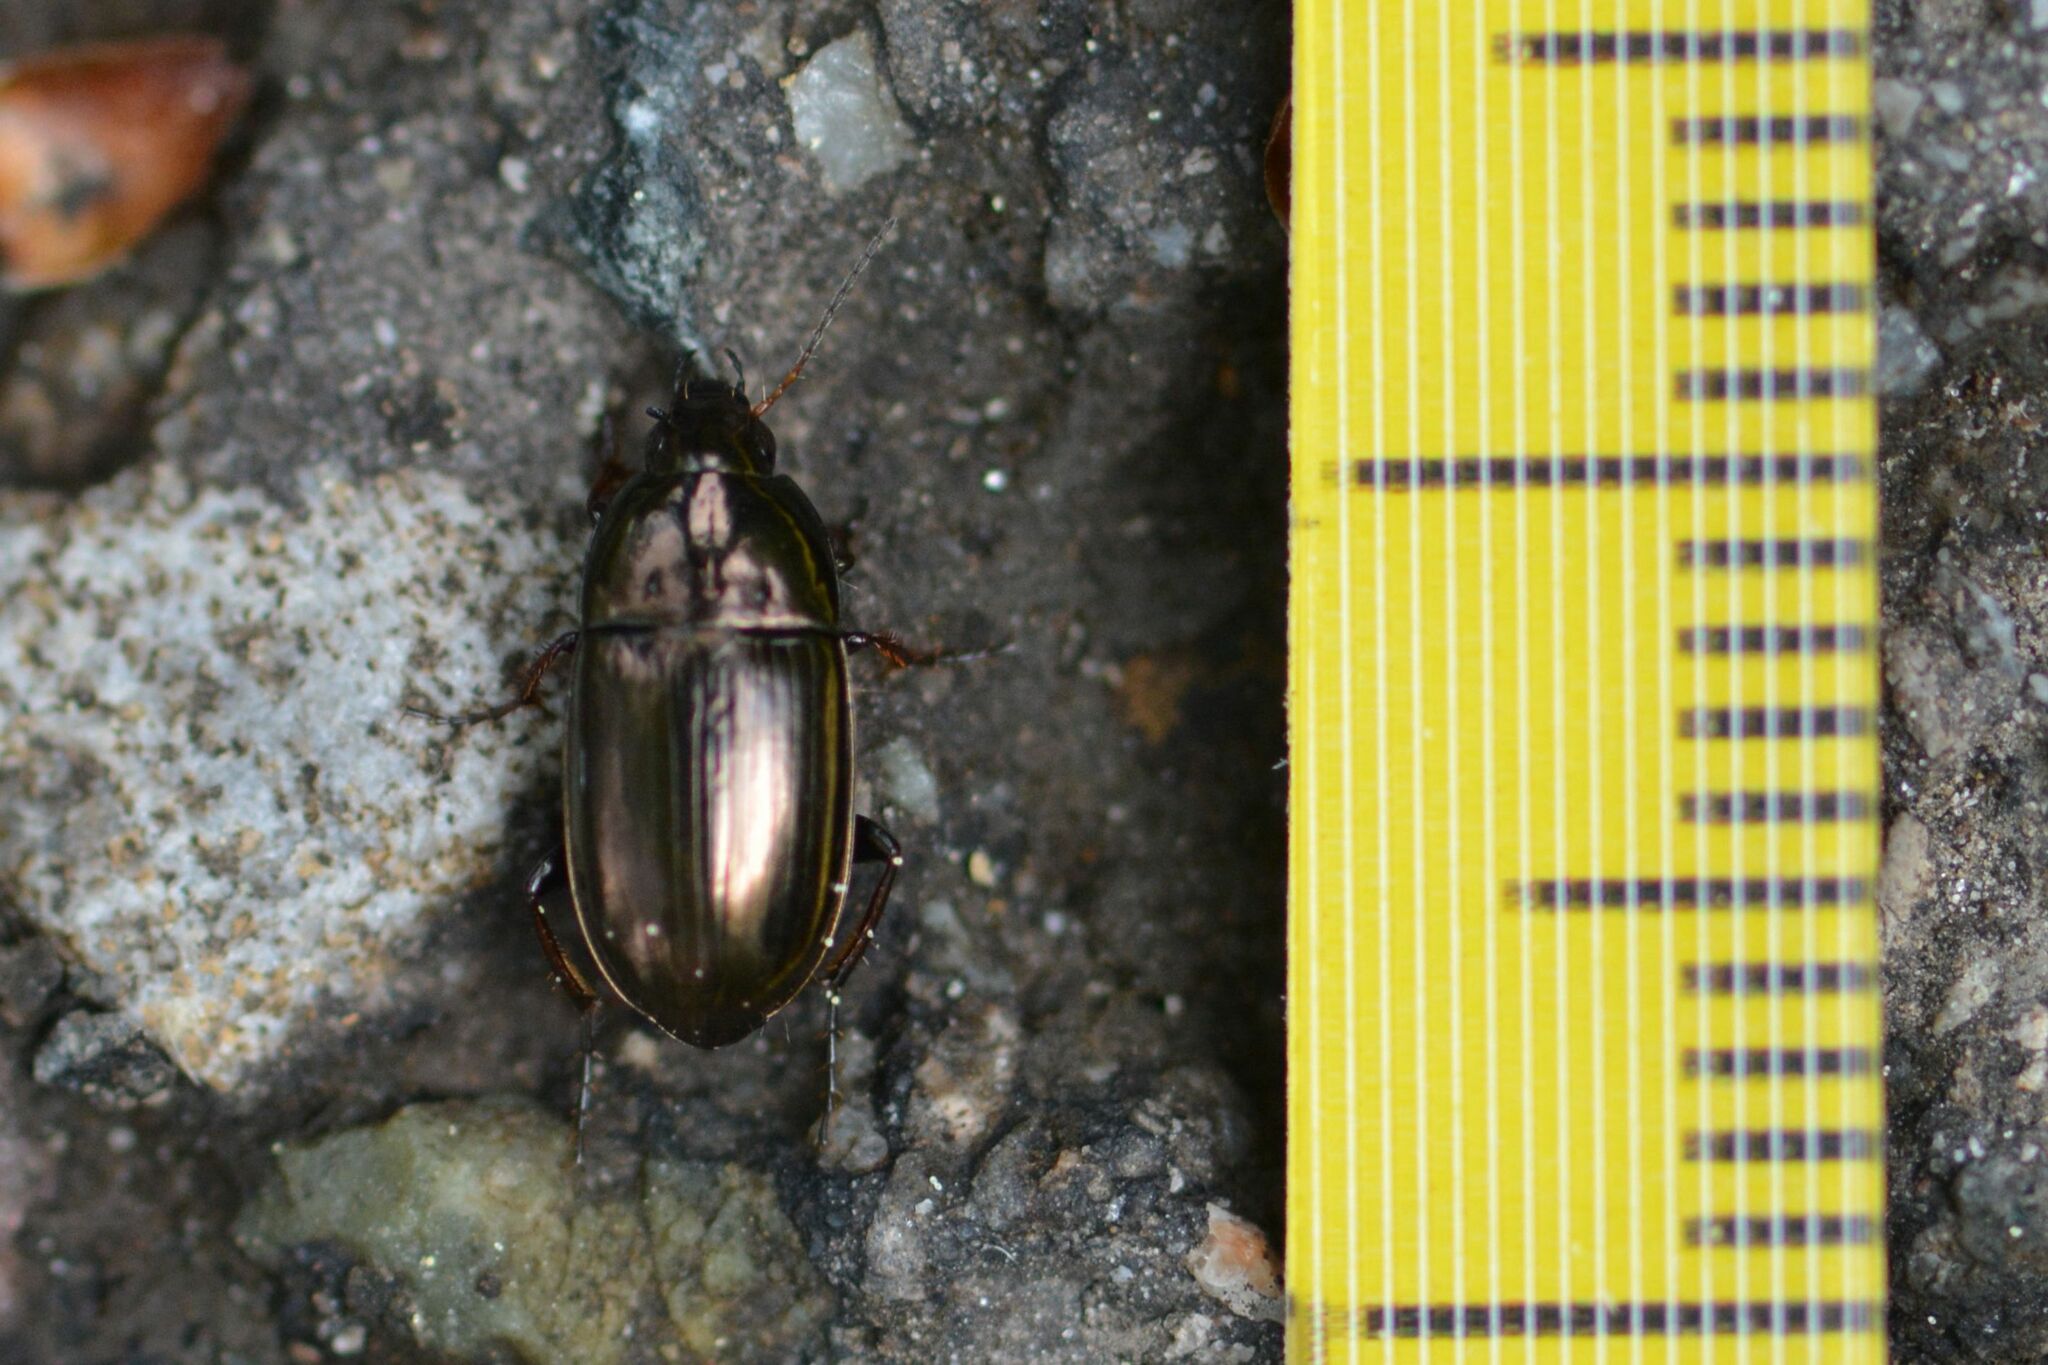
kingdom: Animalia
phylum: Arthropoda
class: Insecta
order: Coleoptera
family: Carabidae
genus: Amara
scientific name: Amara aenea
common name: Common sun beetle
